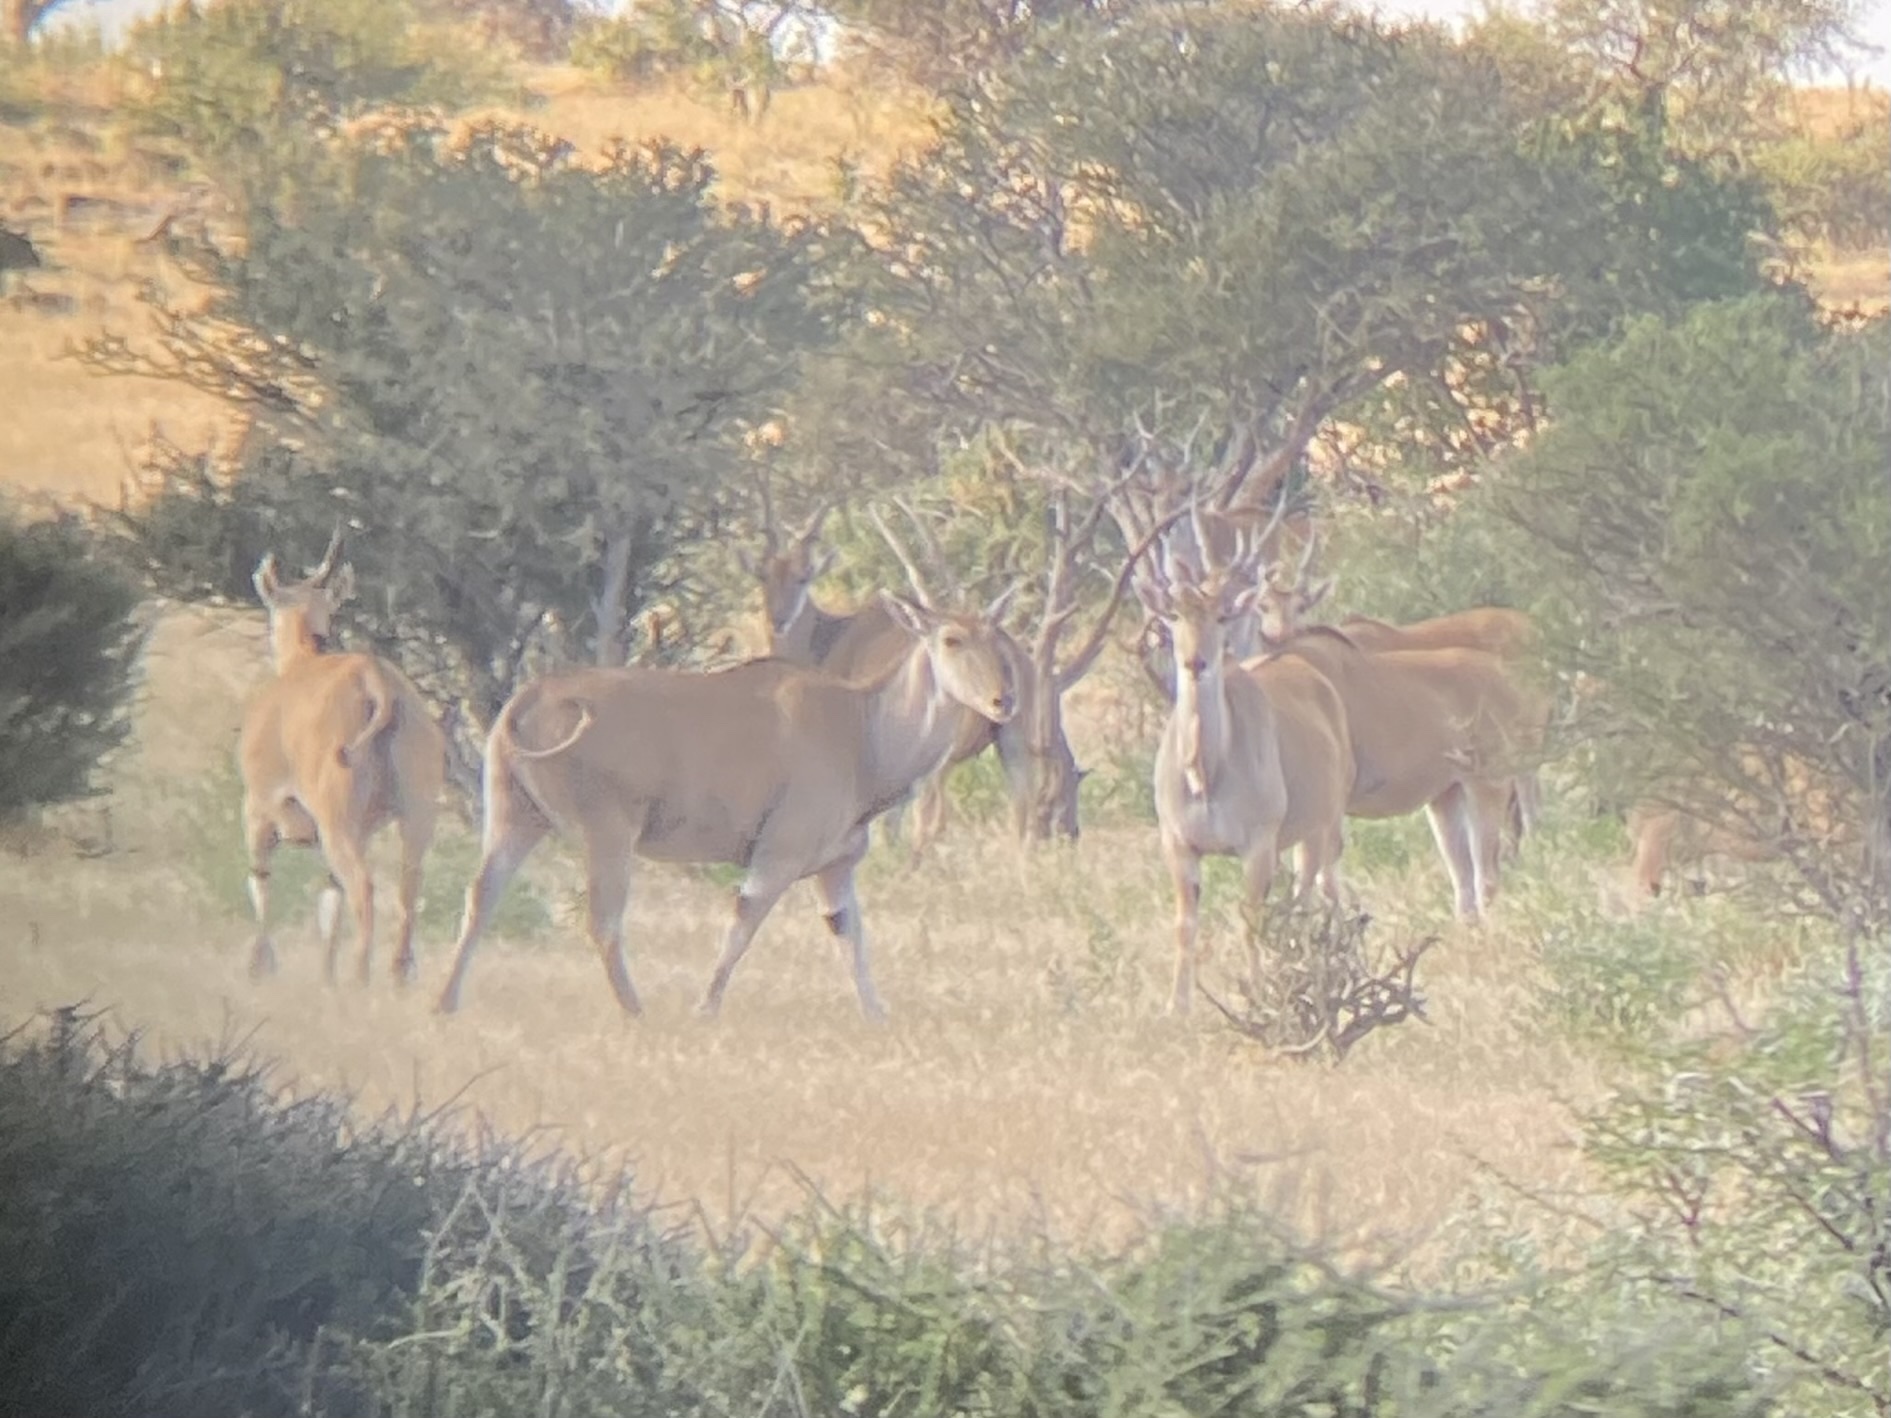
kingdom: Animalia
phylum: Chordata
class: Mammalia
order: Artiodactyla
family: Bovidae
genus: Taurotragus
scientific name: Taurotragus oryx
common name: Common eland
